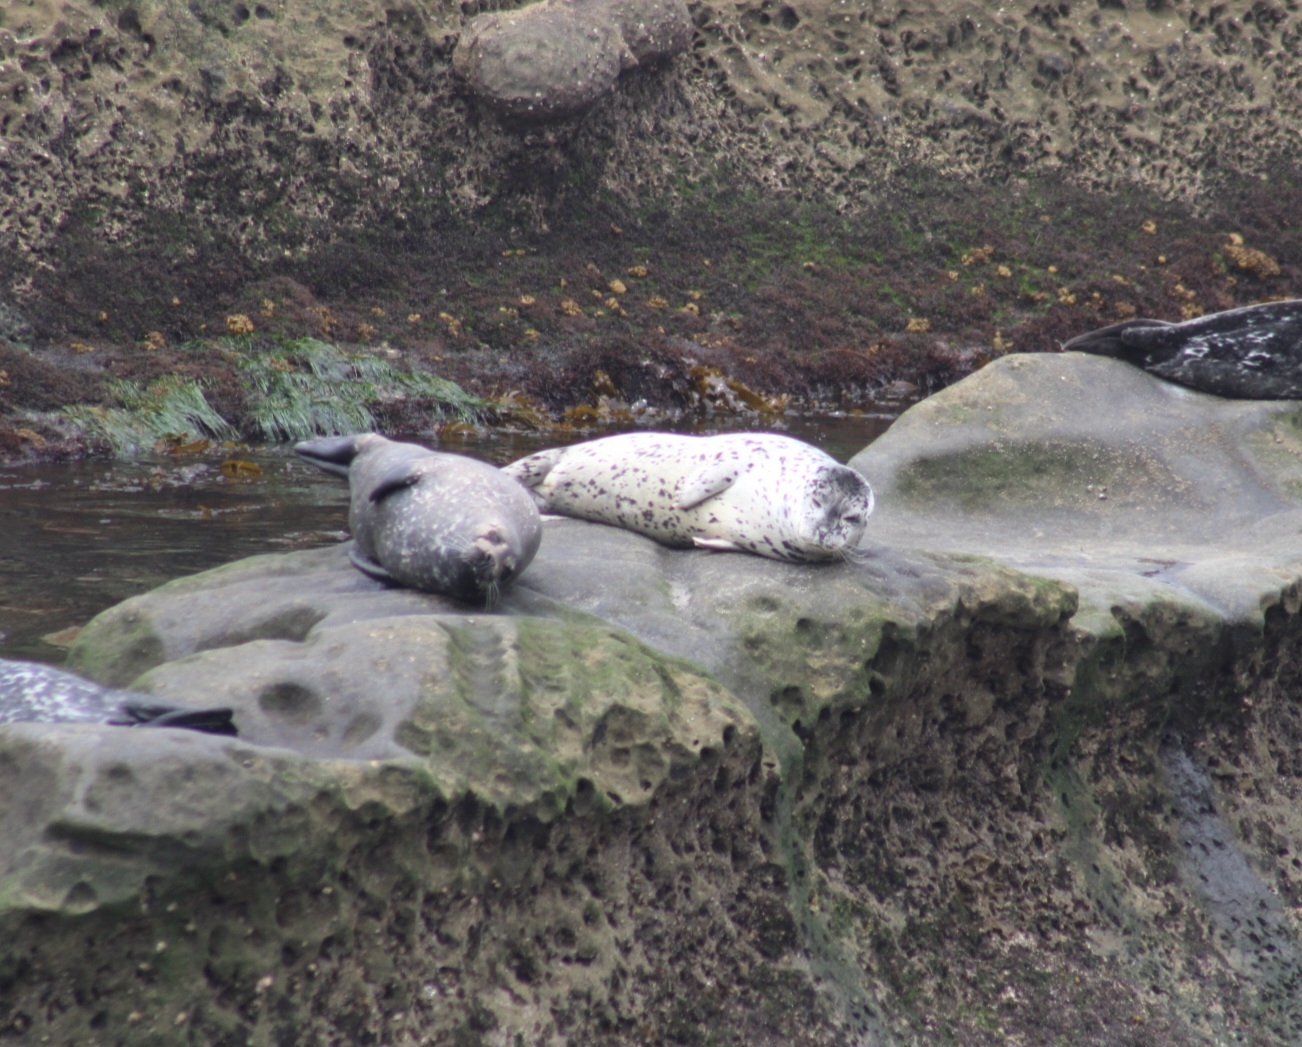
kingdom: Animalia
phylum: Chordata
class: Mammalia
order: Carnivora
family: Phocidae
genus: Phoca
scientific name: Phoca vitulina
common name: Harbor seal
